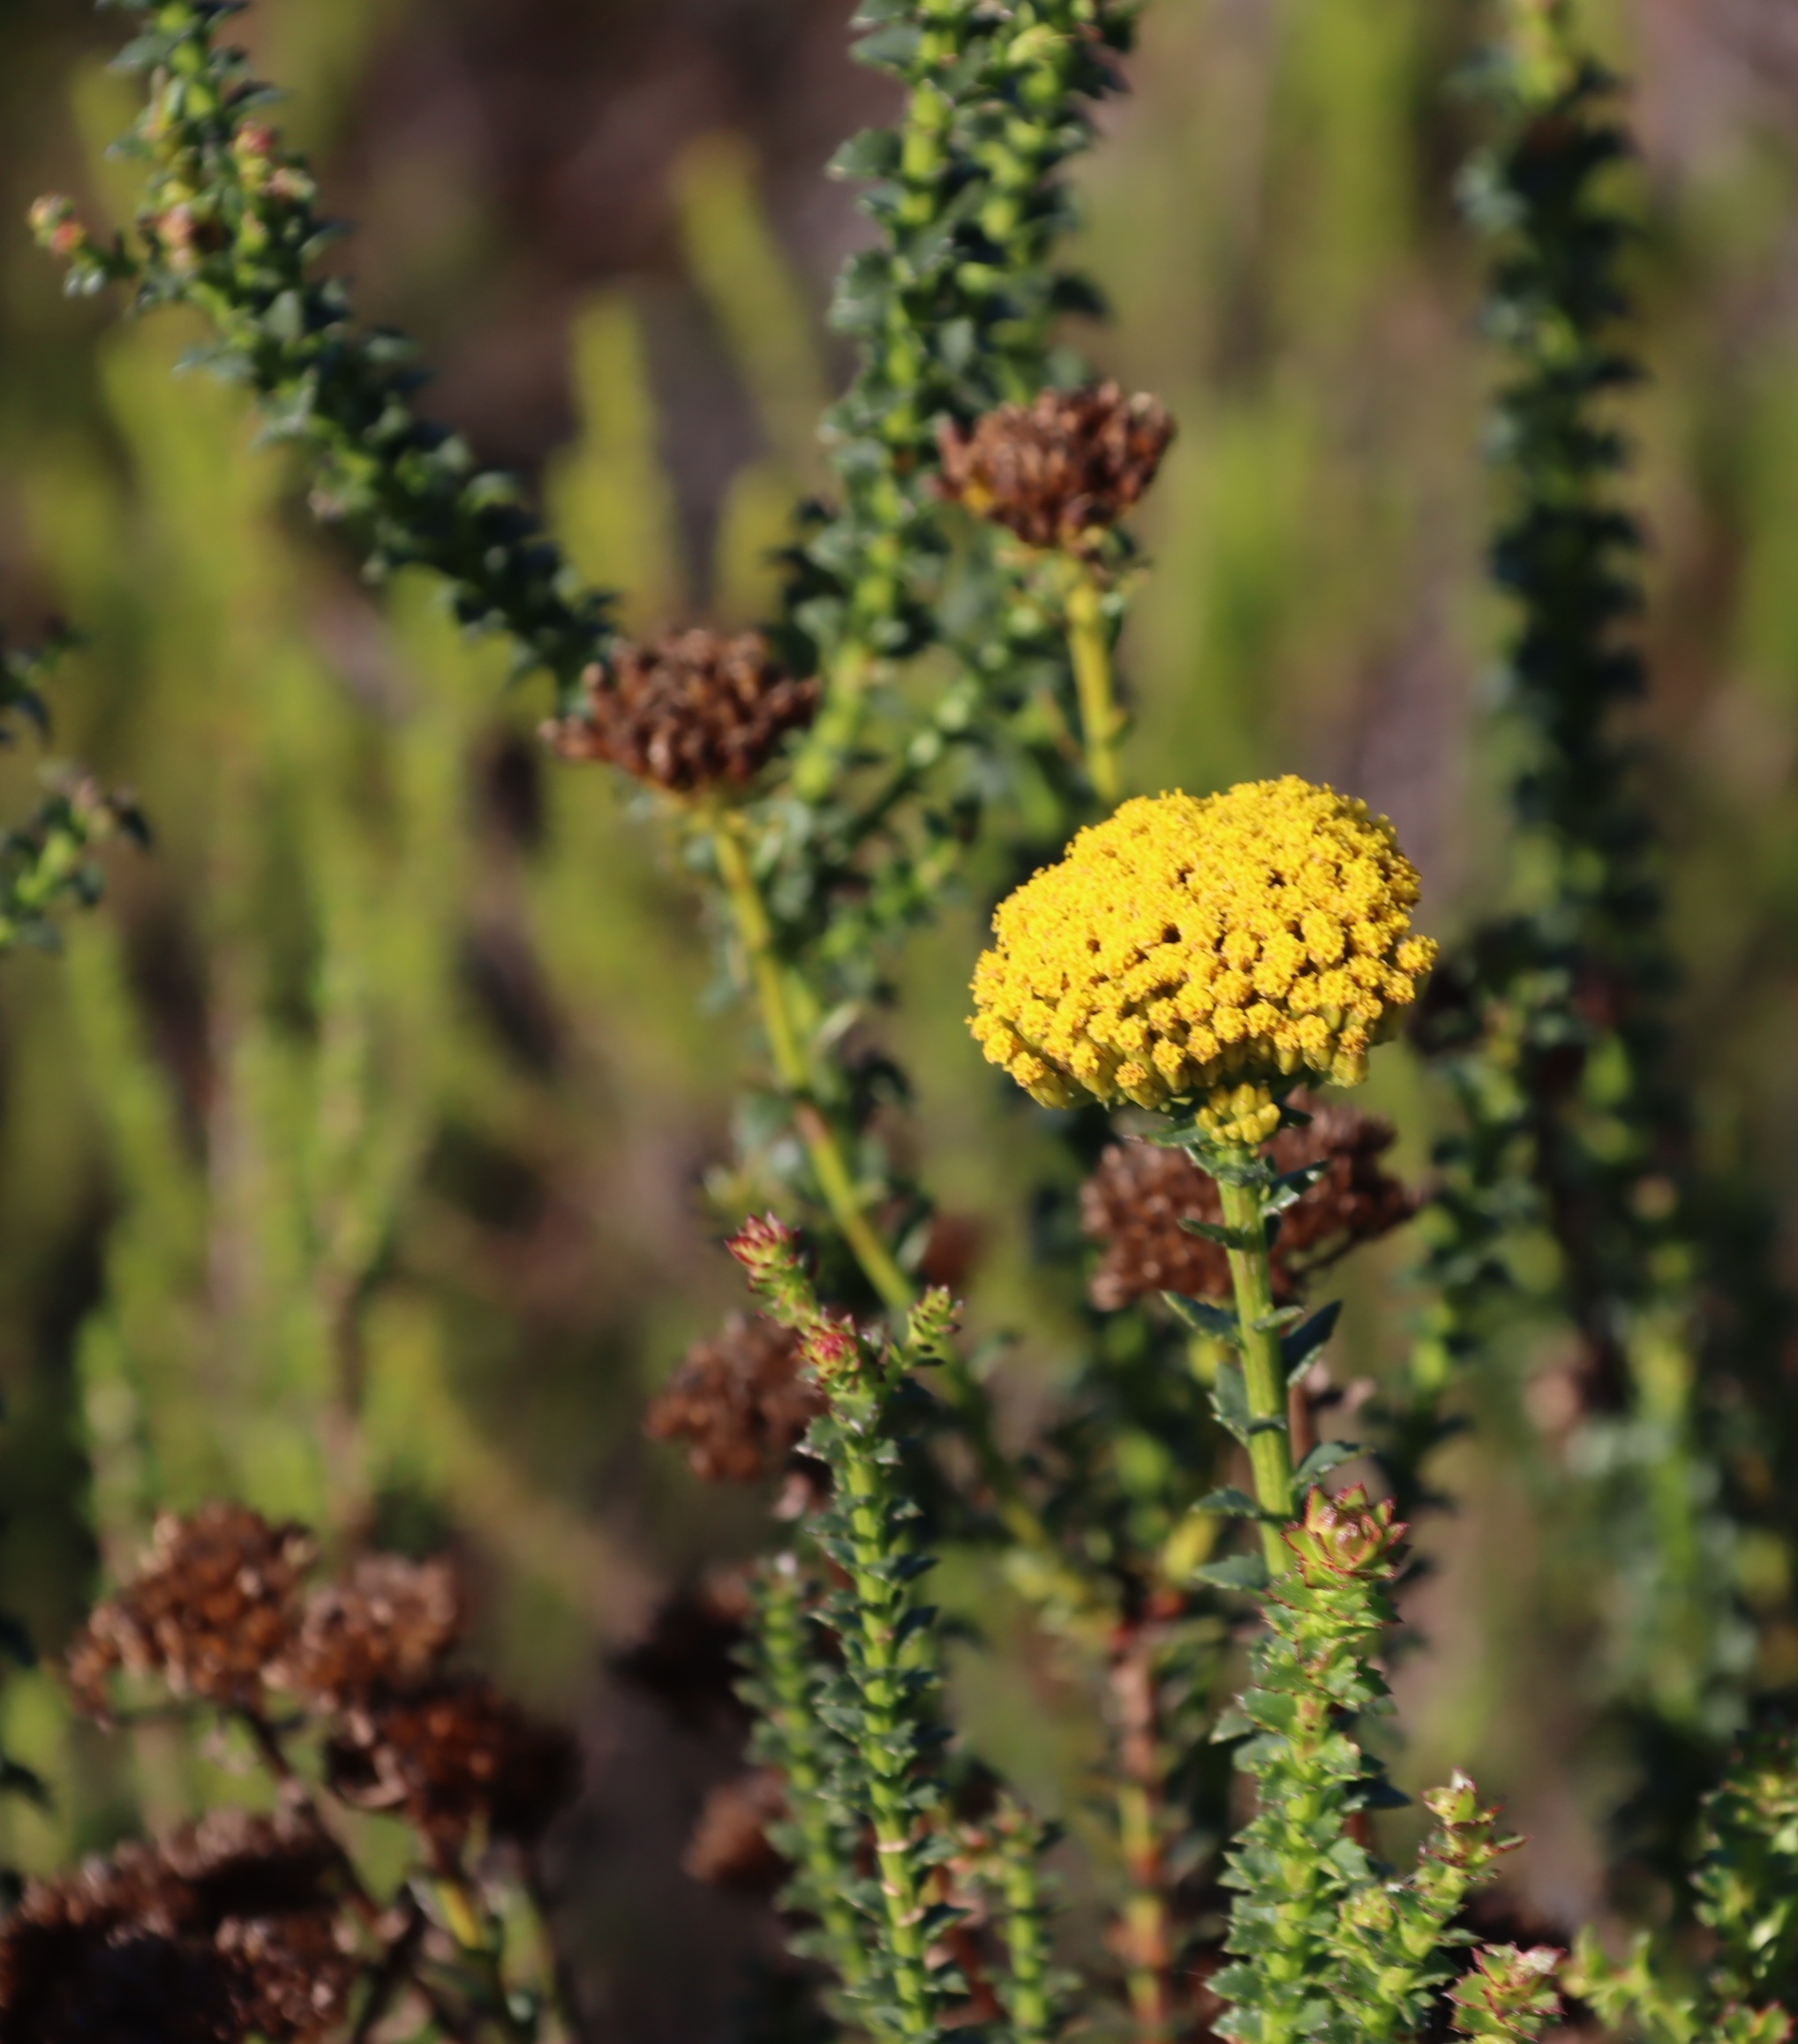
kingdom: Plantae
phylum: Tracheophyta
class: Magnoliopsida
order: Asterales
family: Asteraceae
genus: Athanasia
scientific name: Athanasia dentata
